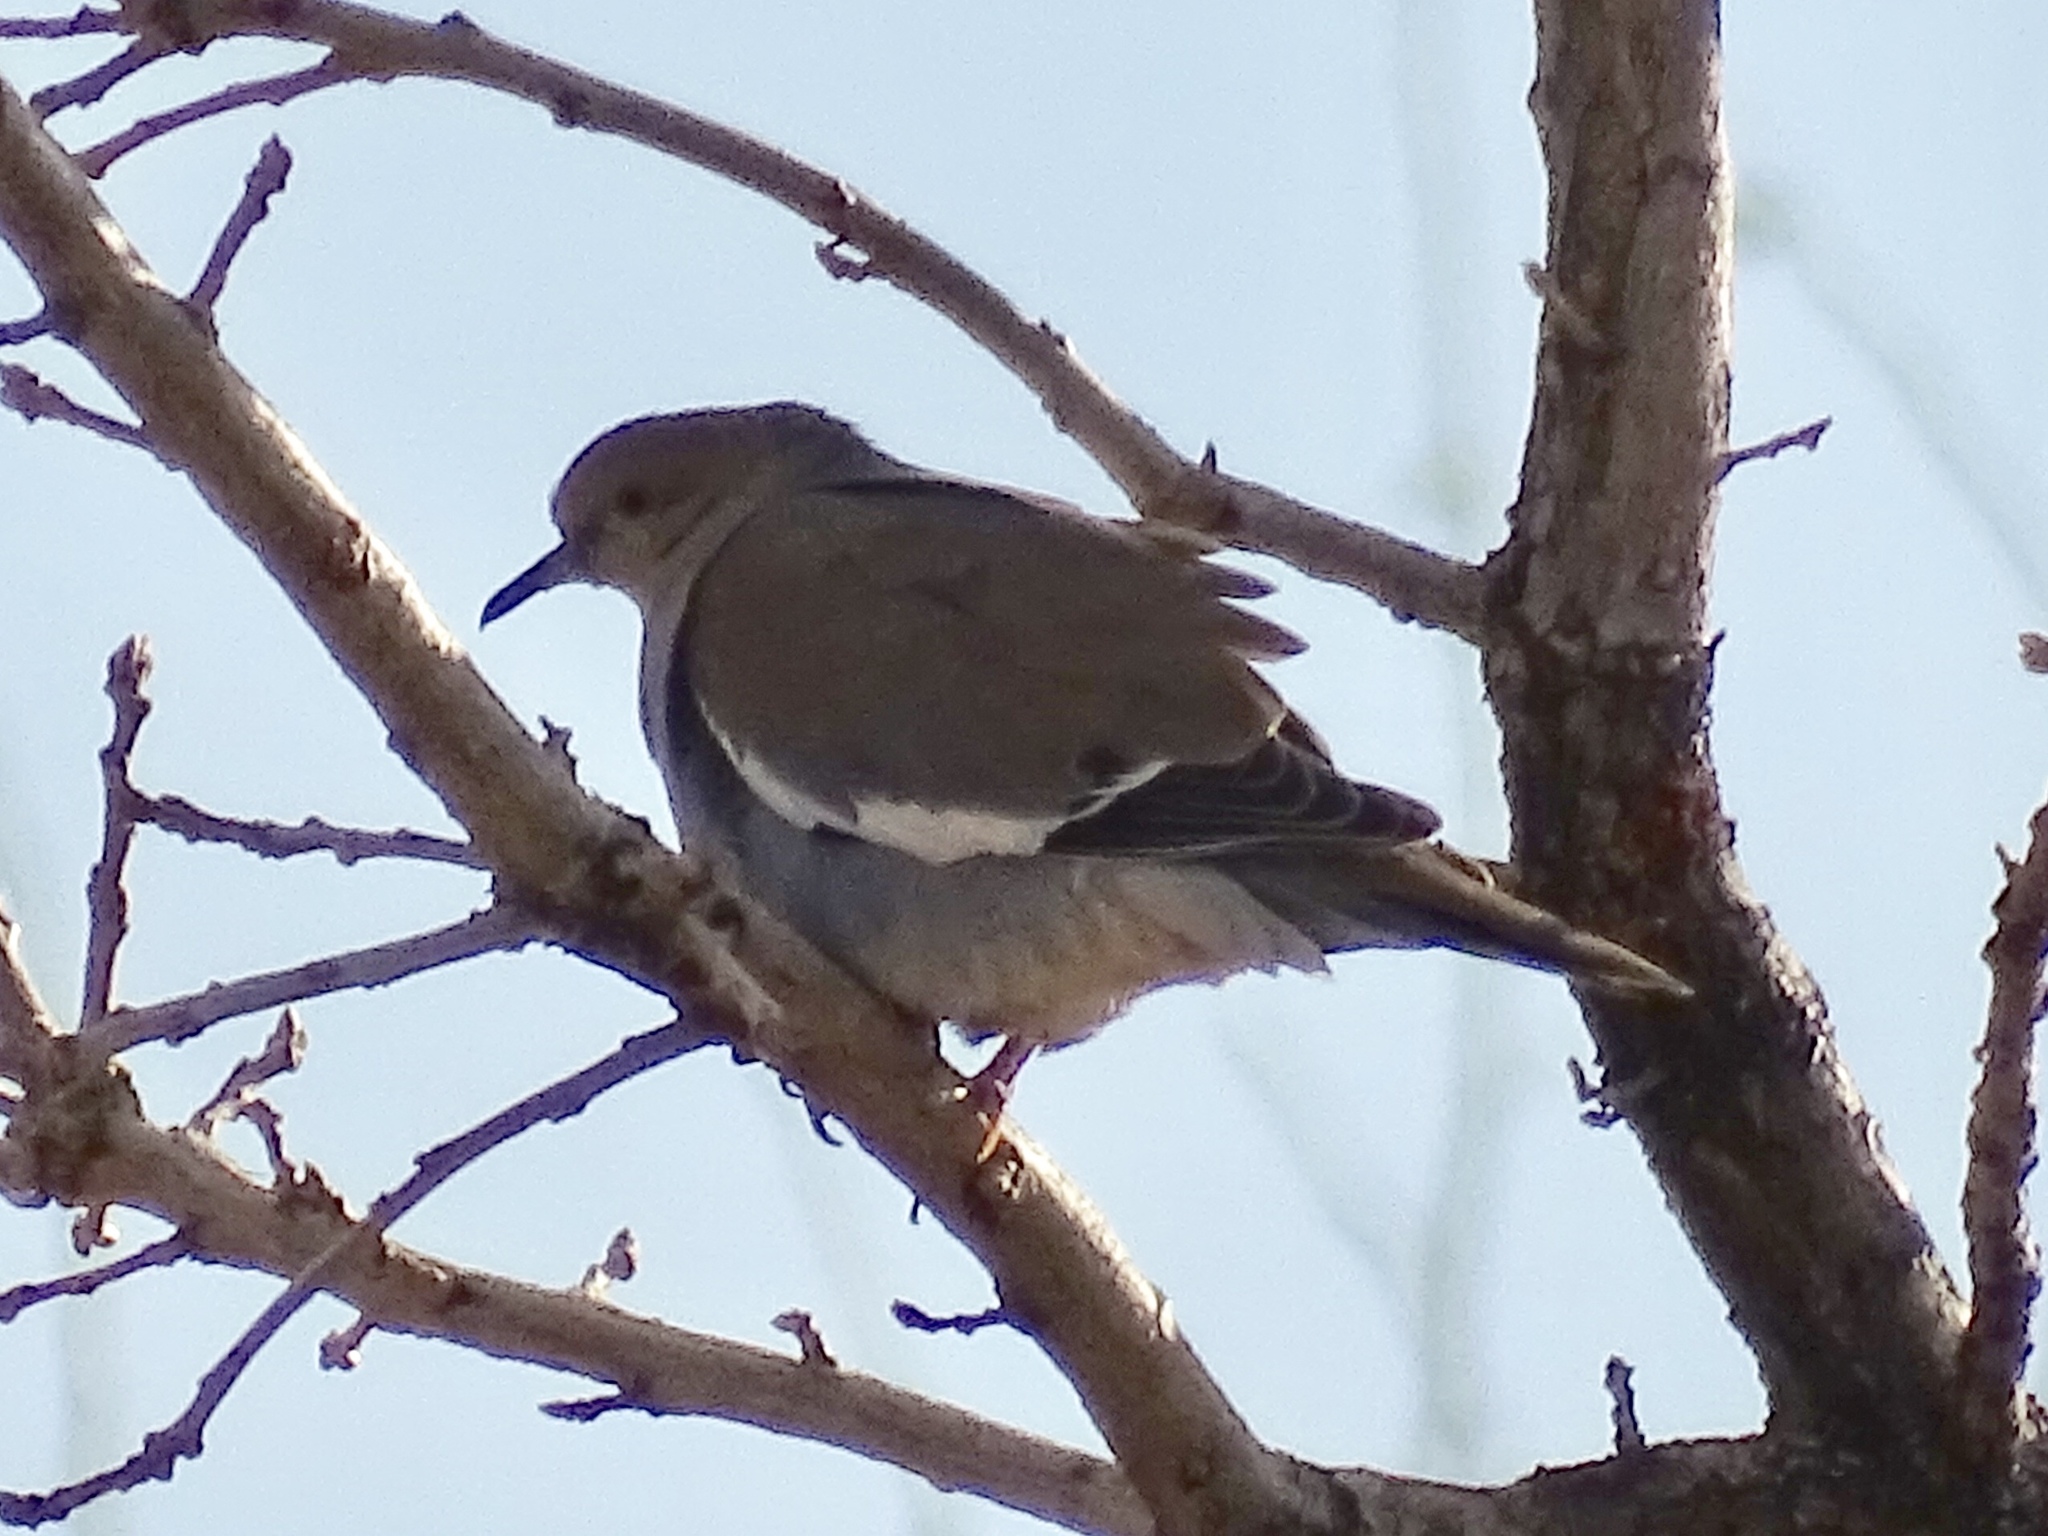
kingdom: Animalia
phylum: Chordata
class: Aves
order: Columbiformes
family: Columbidae
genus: Zenaida
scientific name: Zenaida asiatica
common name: White-winged dove
